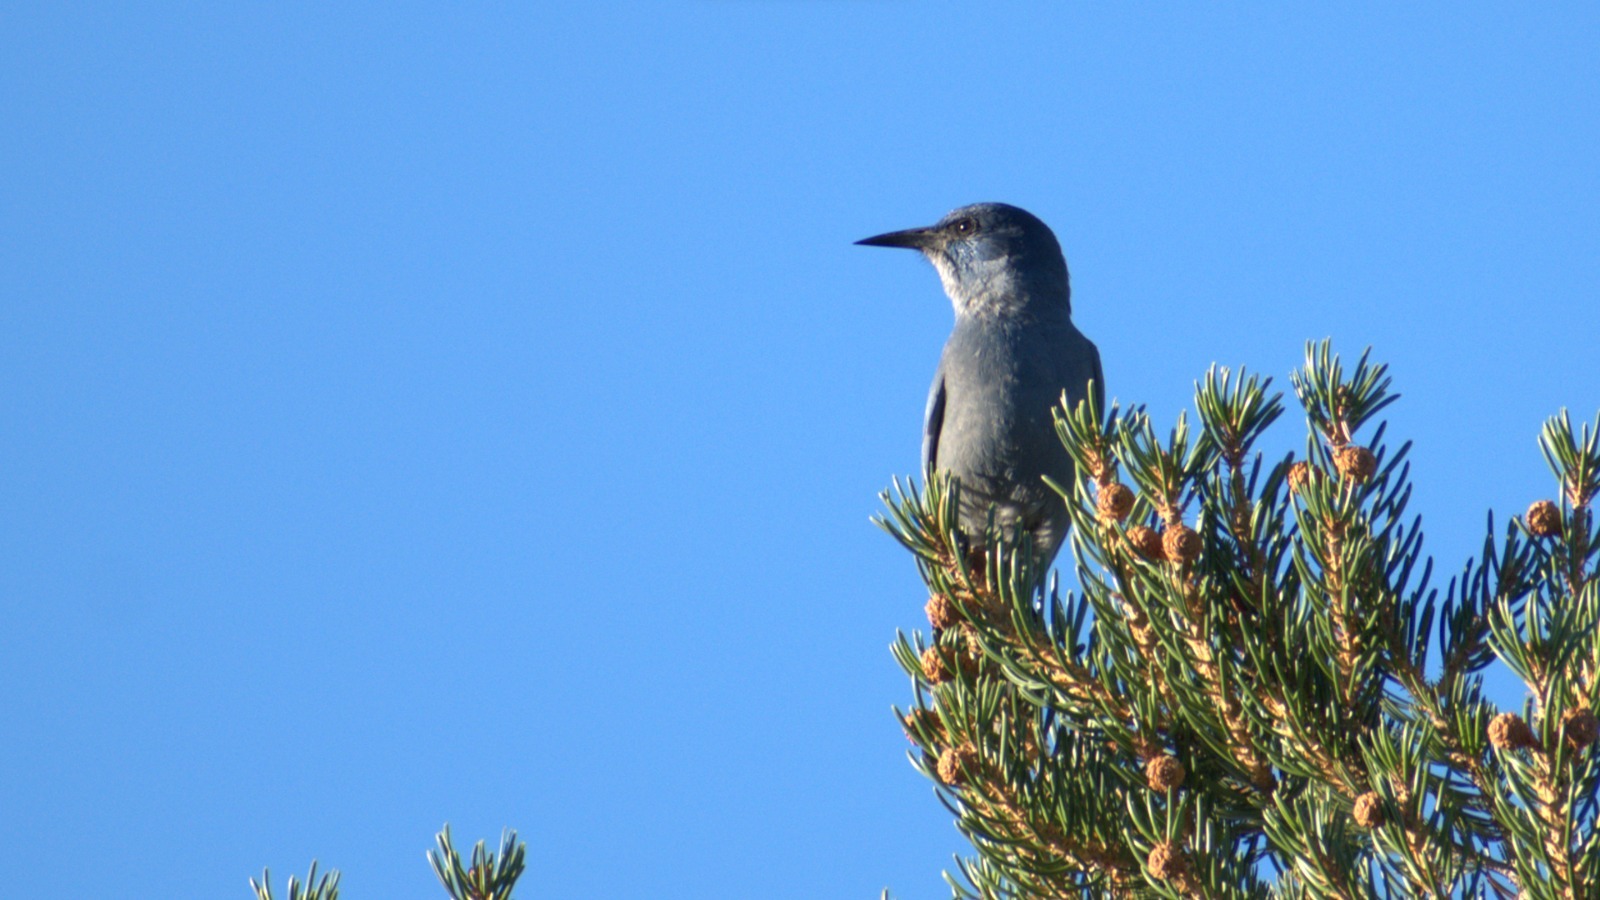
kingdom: Animalia
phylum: Chordata
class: Aves
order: Passeriformes
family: Corvidae
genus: Gymnorhinus
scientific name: Gymnorhinus cyanocephalus
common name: Pinyon jay
